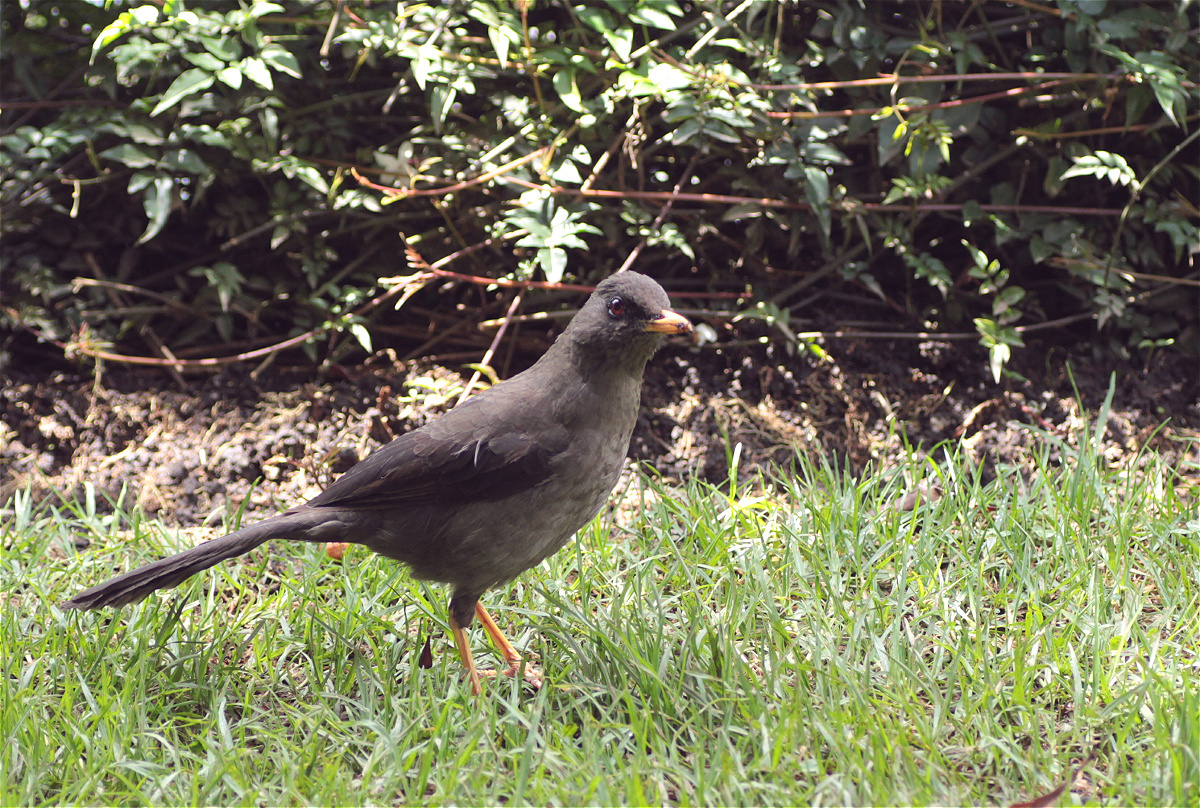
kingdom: Animalia
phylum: Chordata
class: Aves
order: Passeriformes
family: Turdidae
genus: Turdus
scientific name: Turdus fuscater
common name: Great thrush
